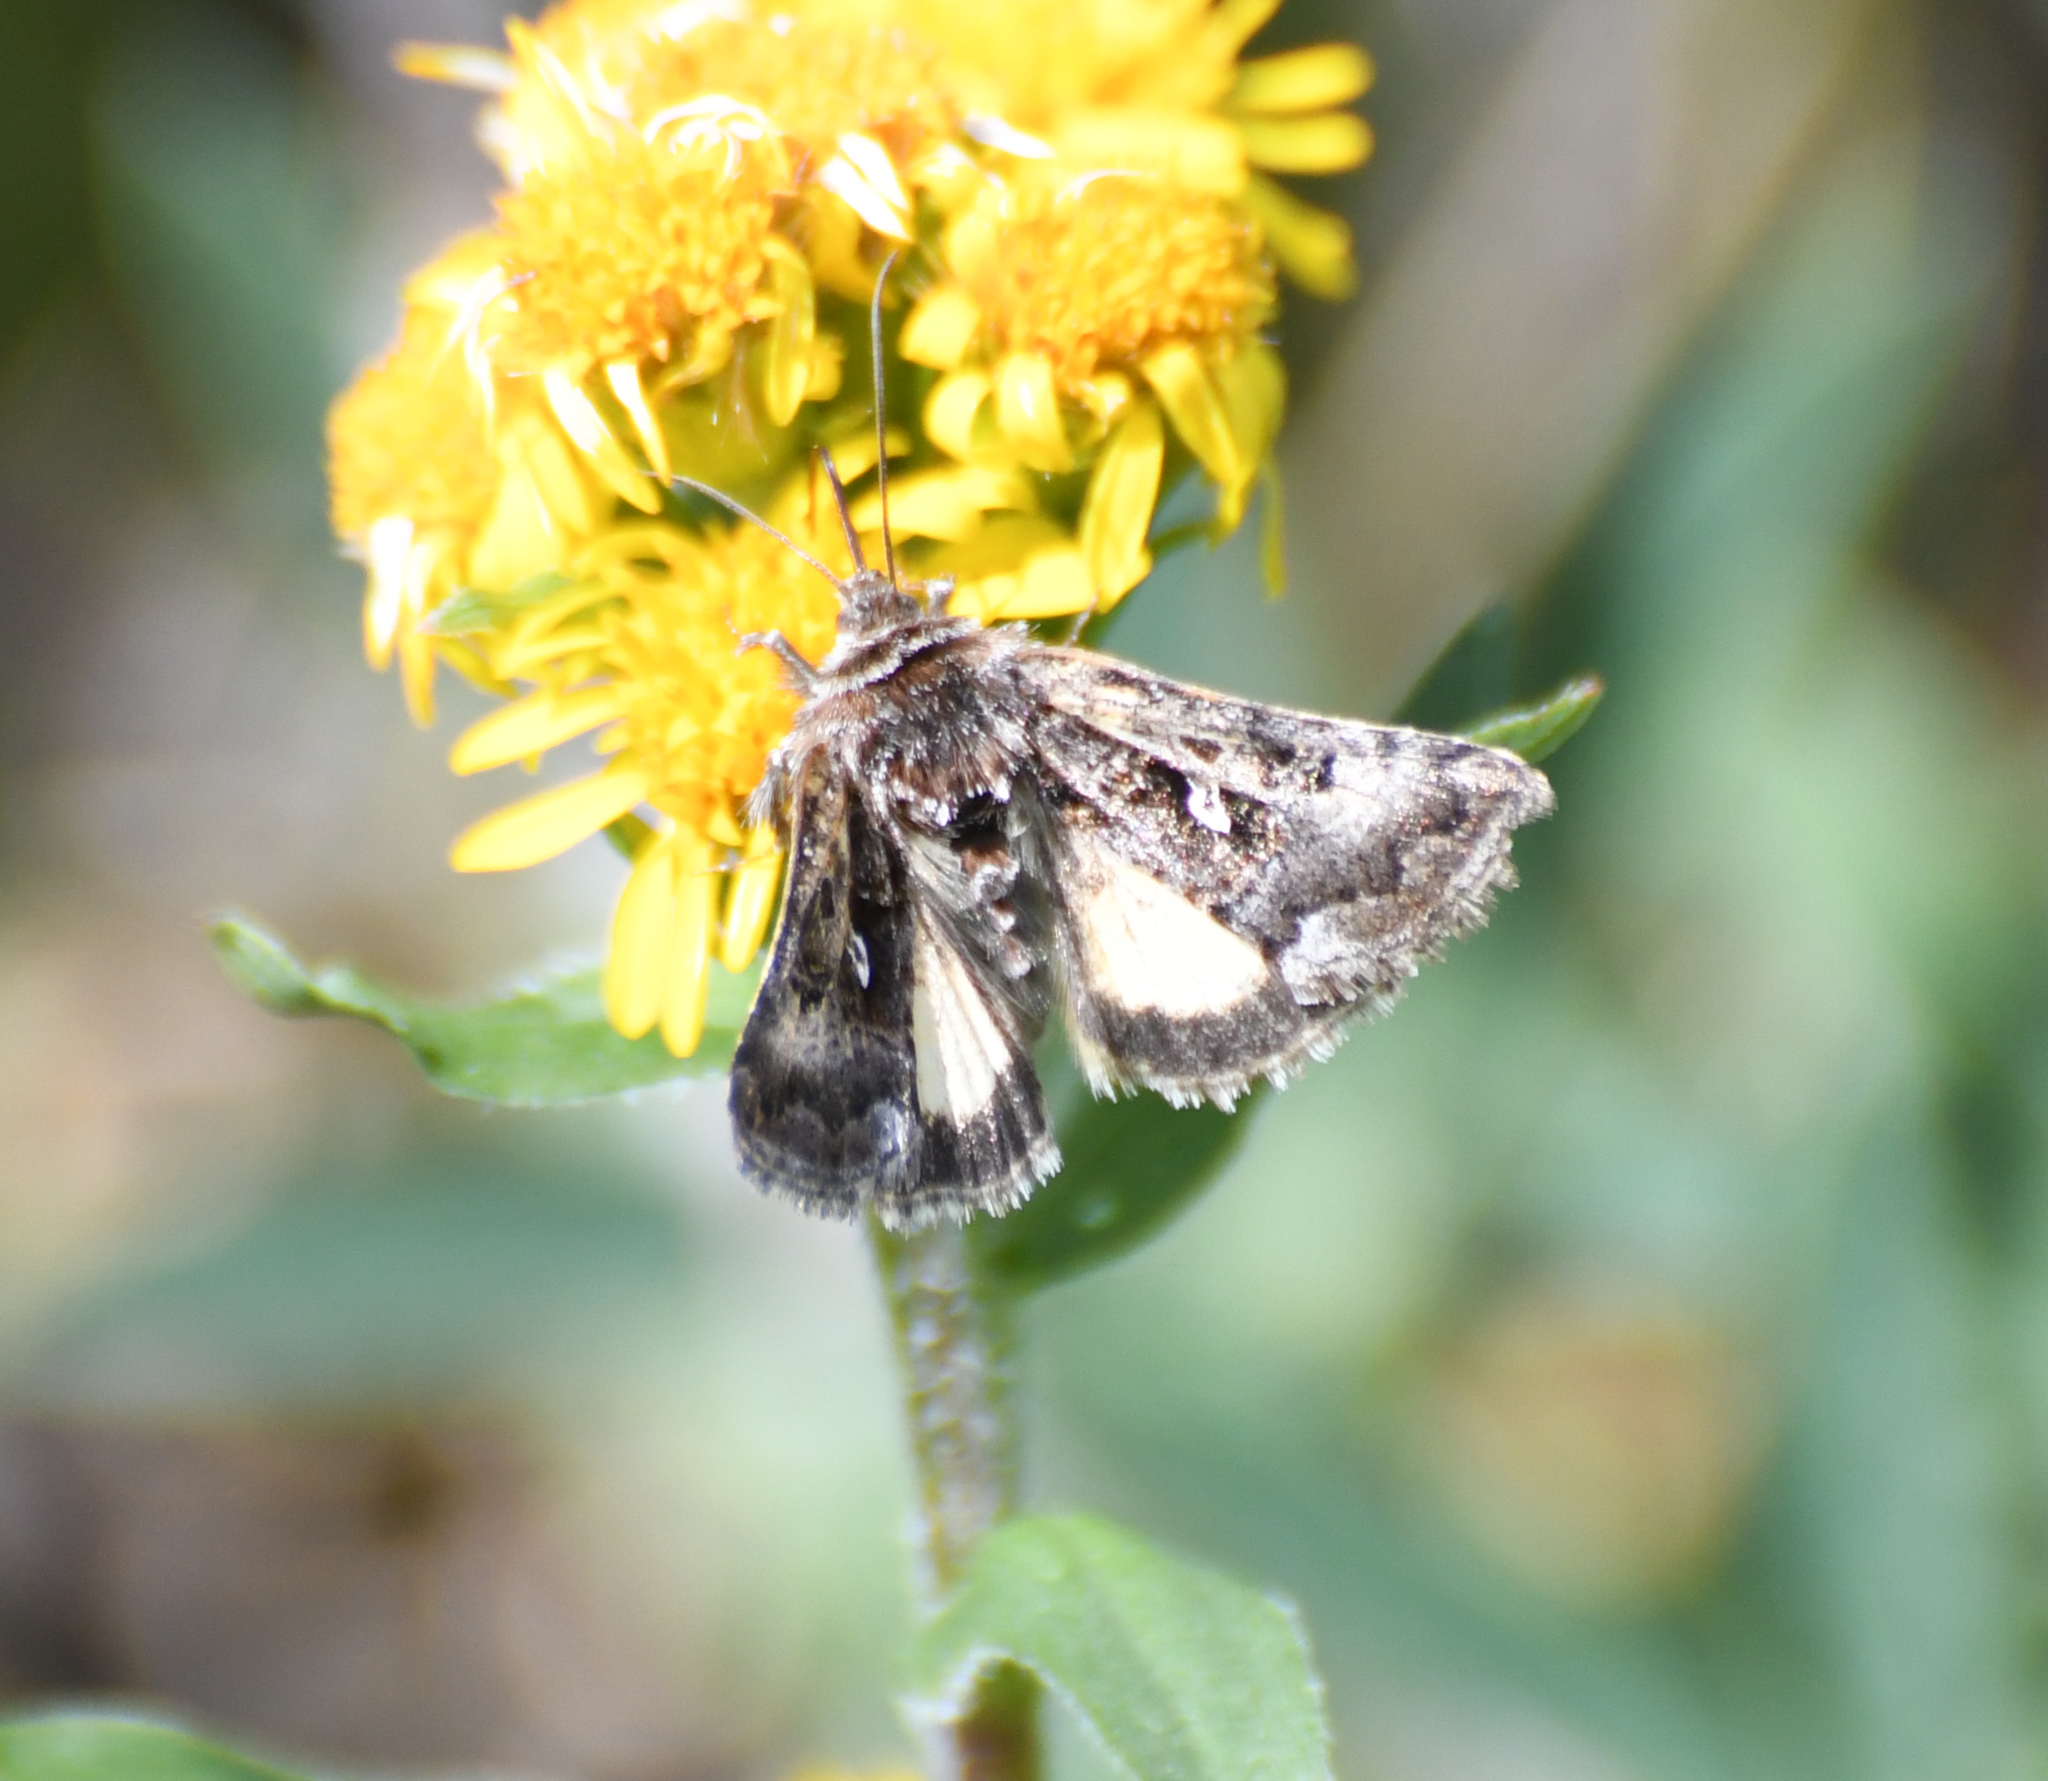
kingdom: Animalia
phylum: Arthropoda
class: Insecta
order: Lepidoptera
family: Noctuidae
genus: Syngrapha
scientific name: Syngrapha alticola
